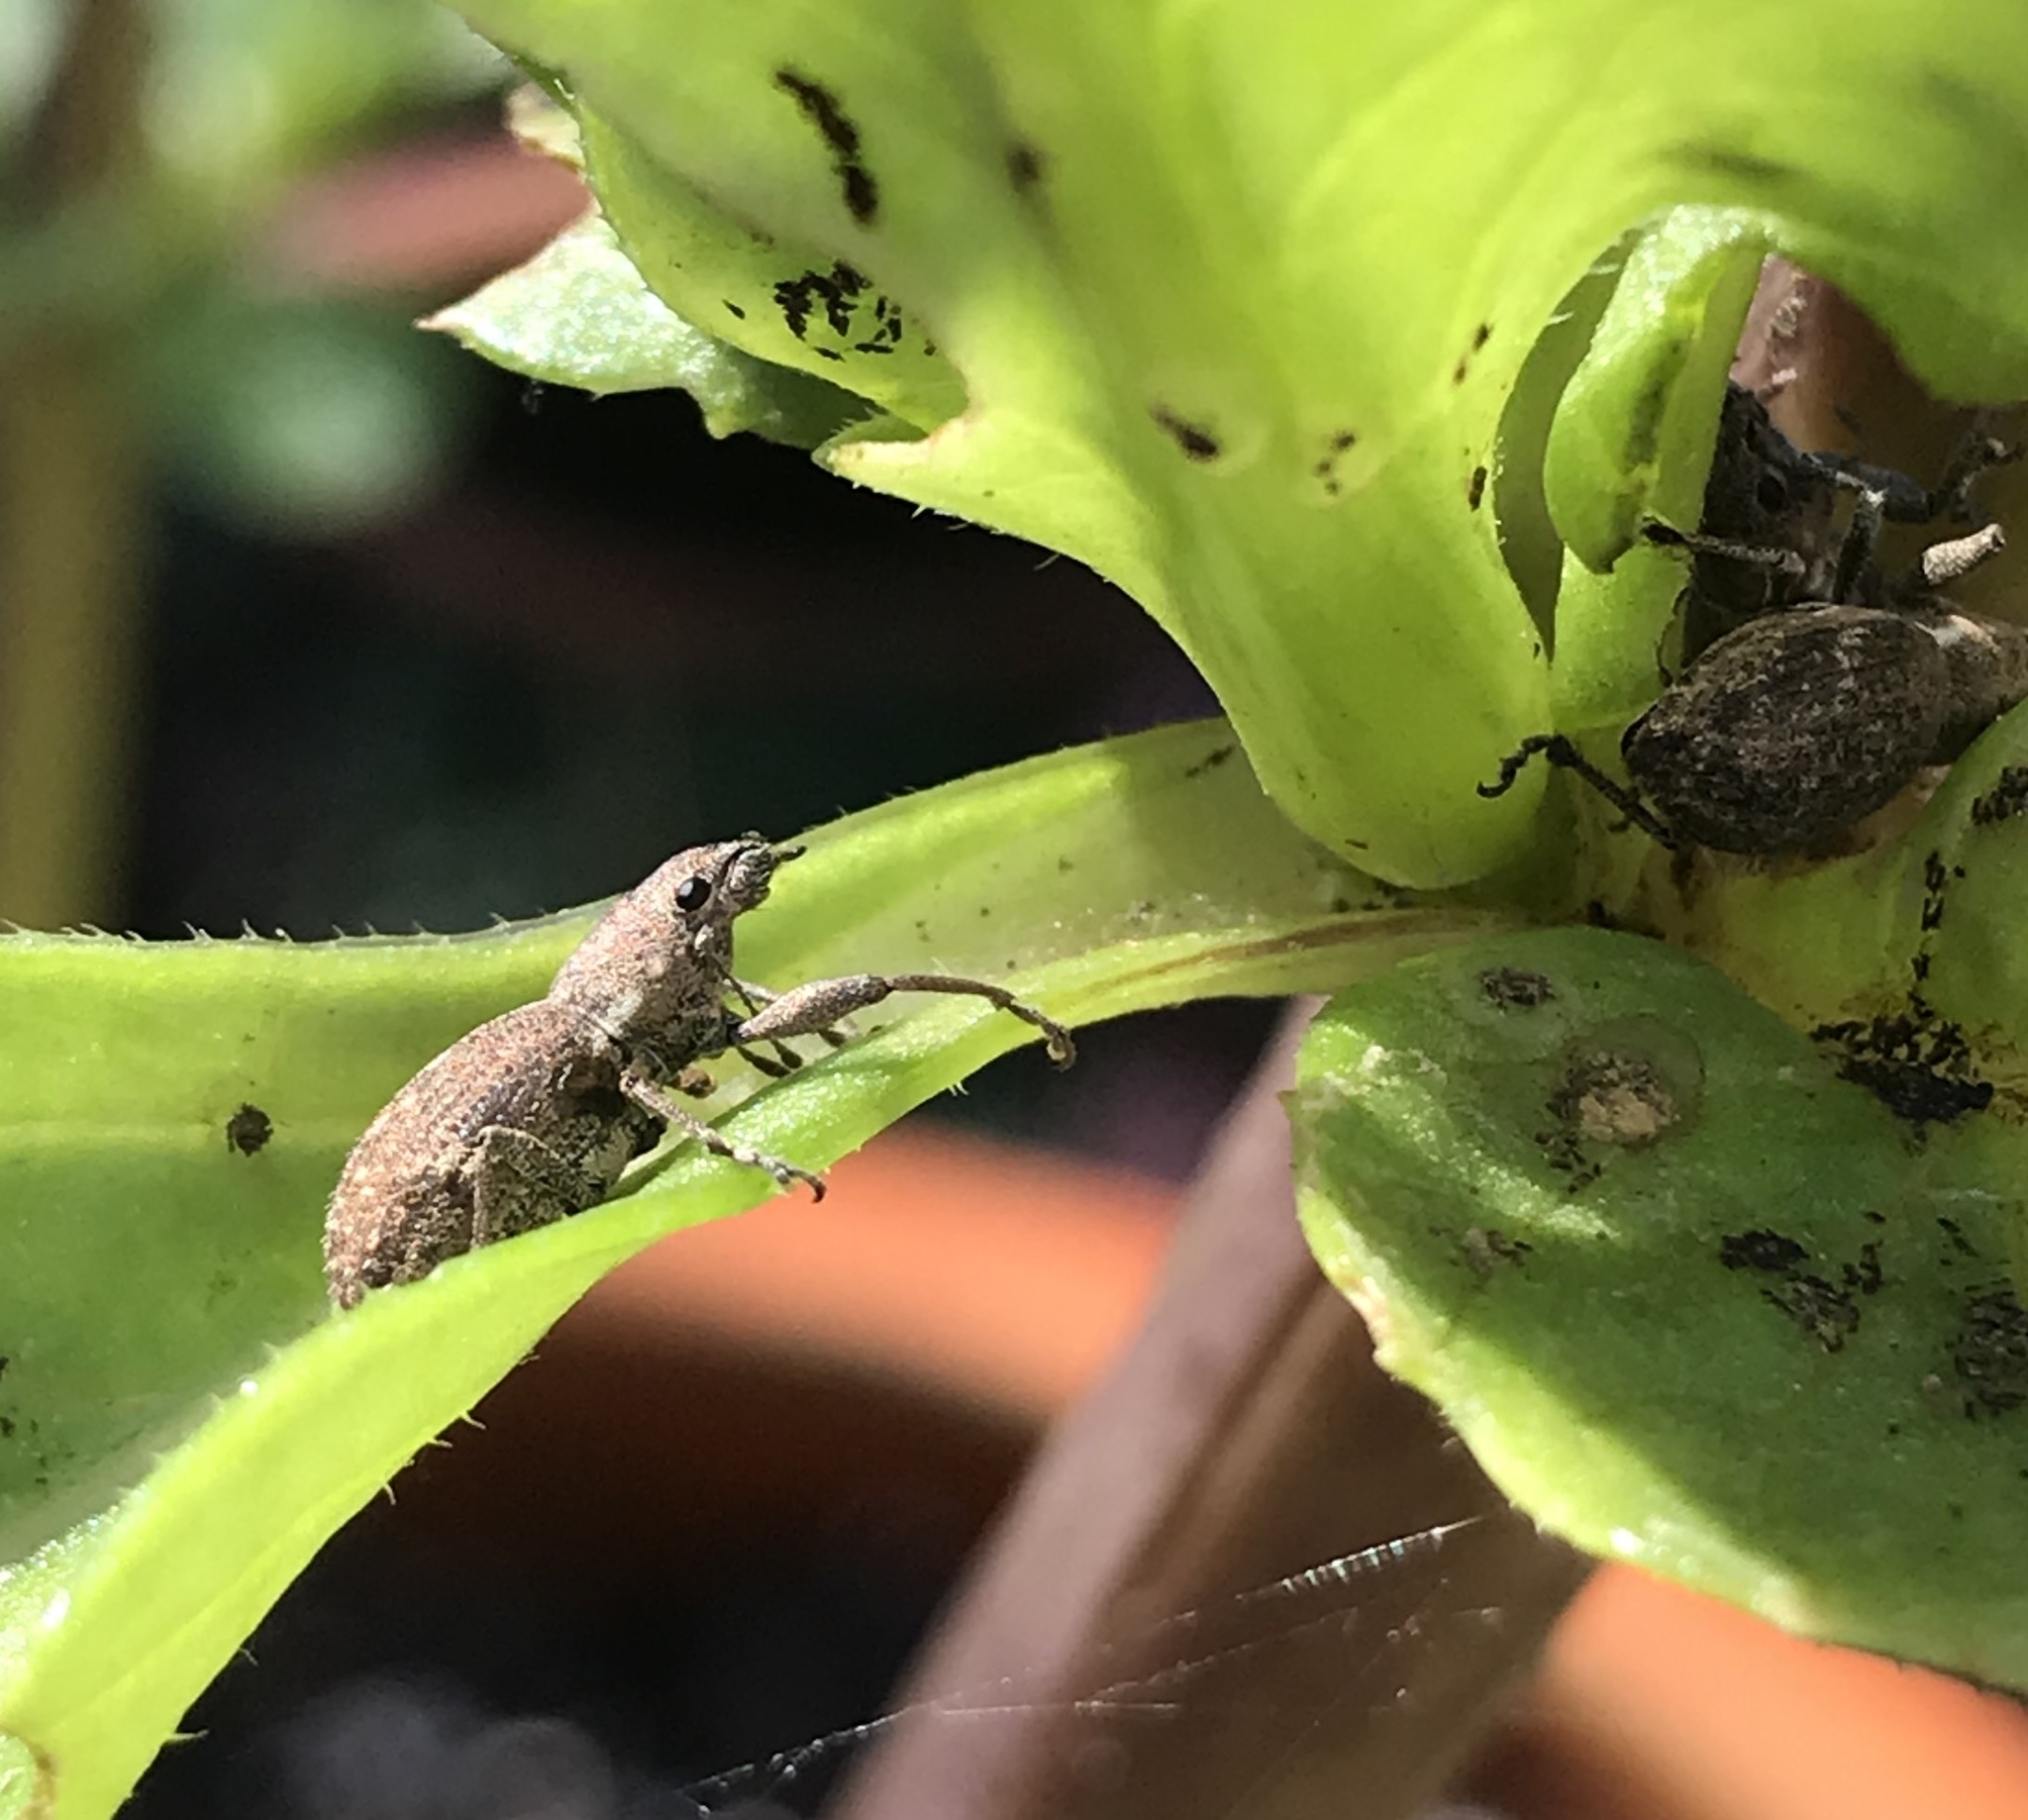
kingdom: Animalia
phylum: Arthropoda
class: Insecta
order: Coleoptera
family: Curculionidae
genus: Naupactus
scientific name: Naupactus cervinus
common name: Fuller rose beetle
